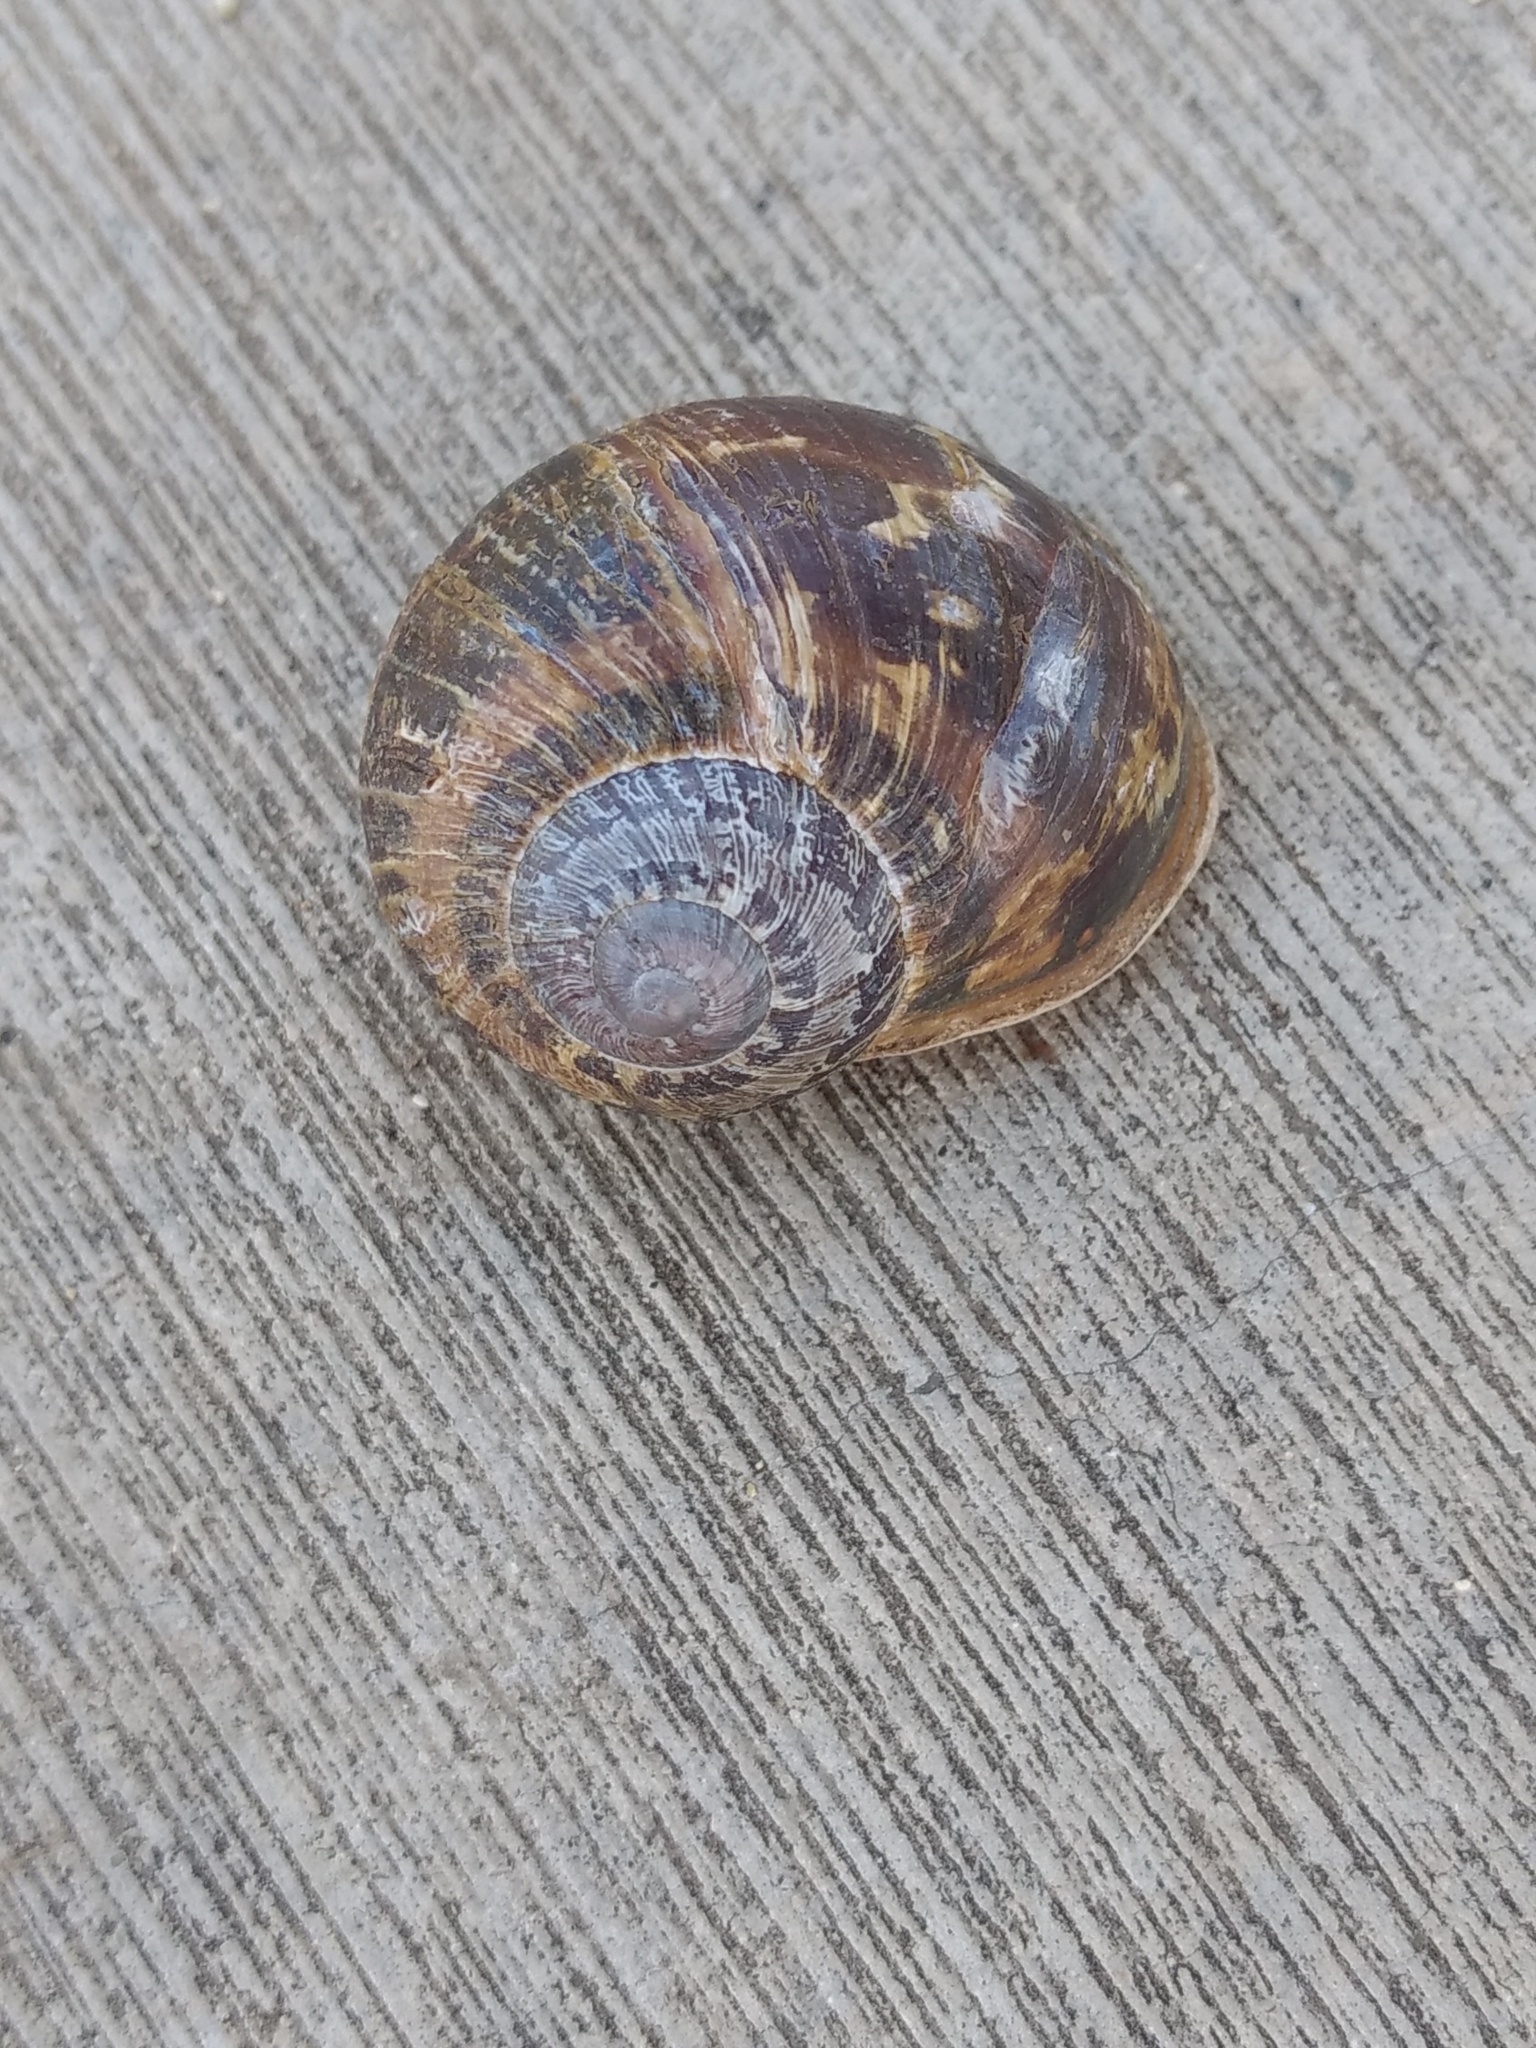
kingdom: Animalia
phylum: Mollusca
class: Gastropoda
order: Stylommatophora
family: Helicidae
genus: Cornu
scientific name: Cornu aspersum
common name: Brown garden snail
